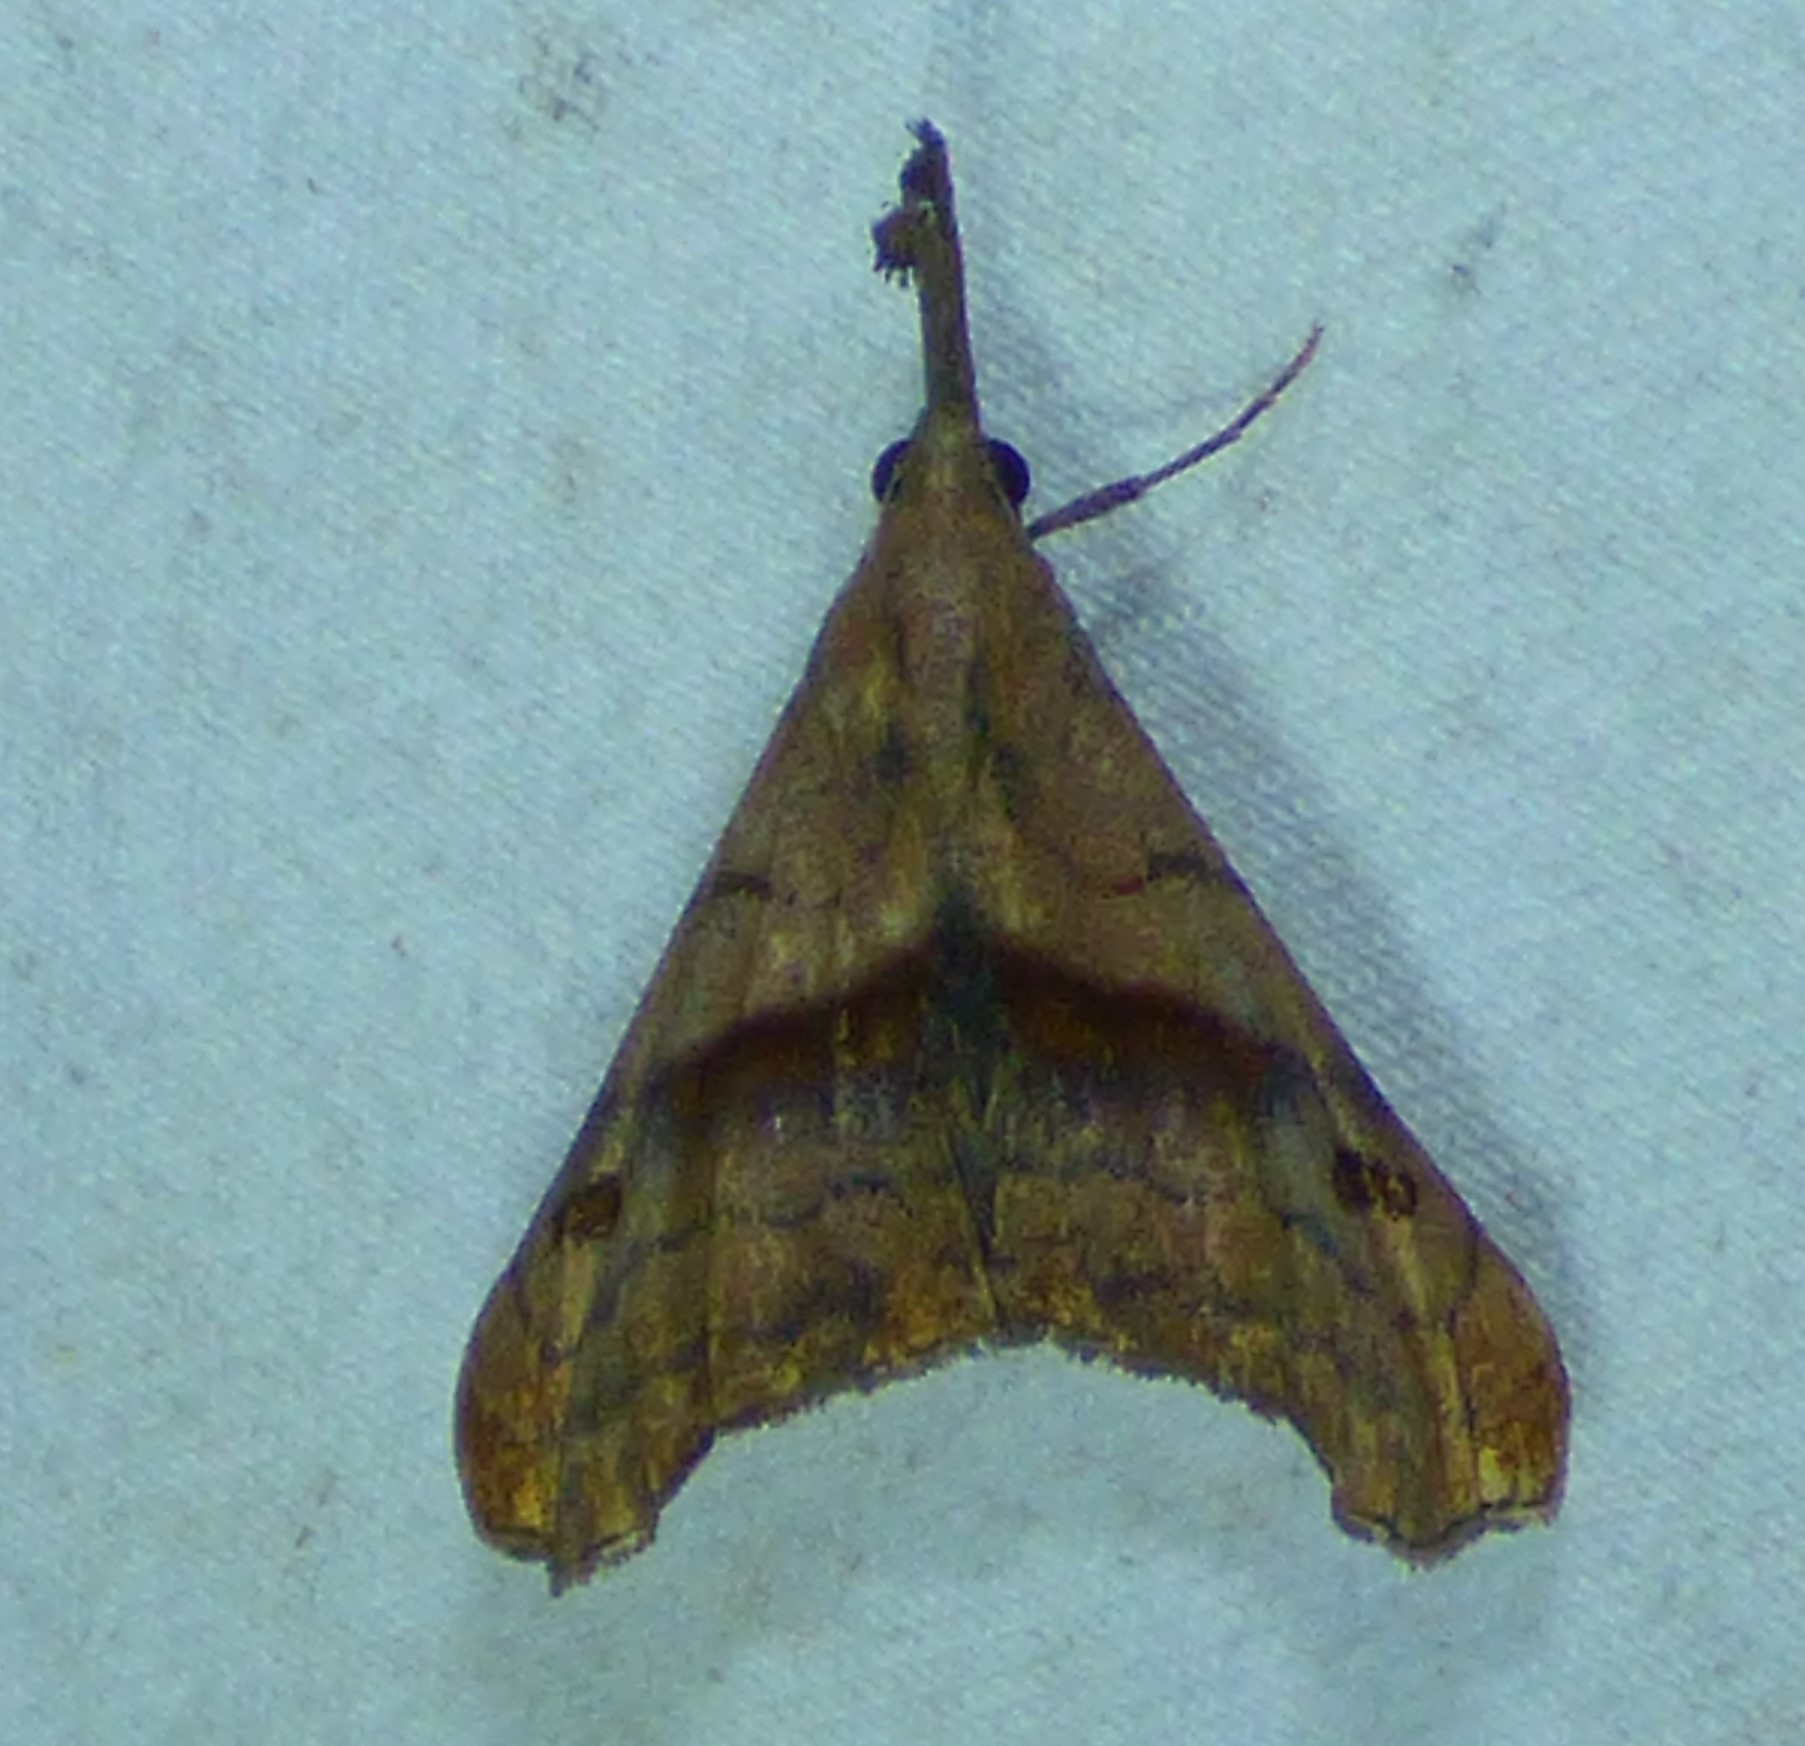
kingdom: Animalia
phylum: Arthropoda
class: Insecta
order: Lepidoptera
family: Erebidae
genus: Palthis
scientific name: Palthis angulalis
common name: Dark-spotted palthis moth
